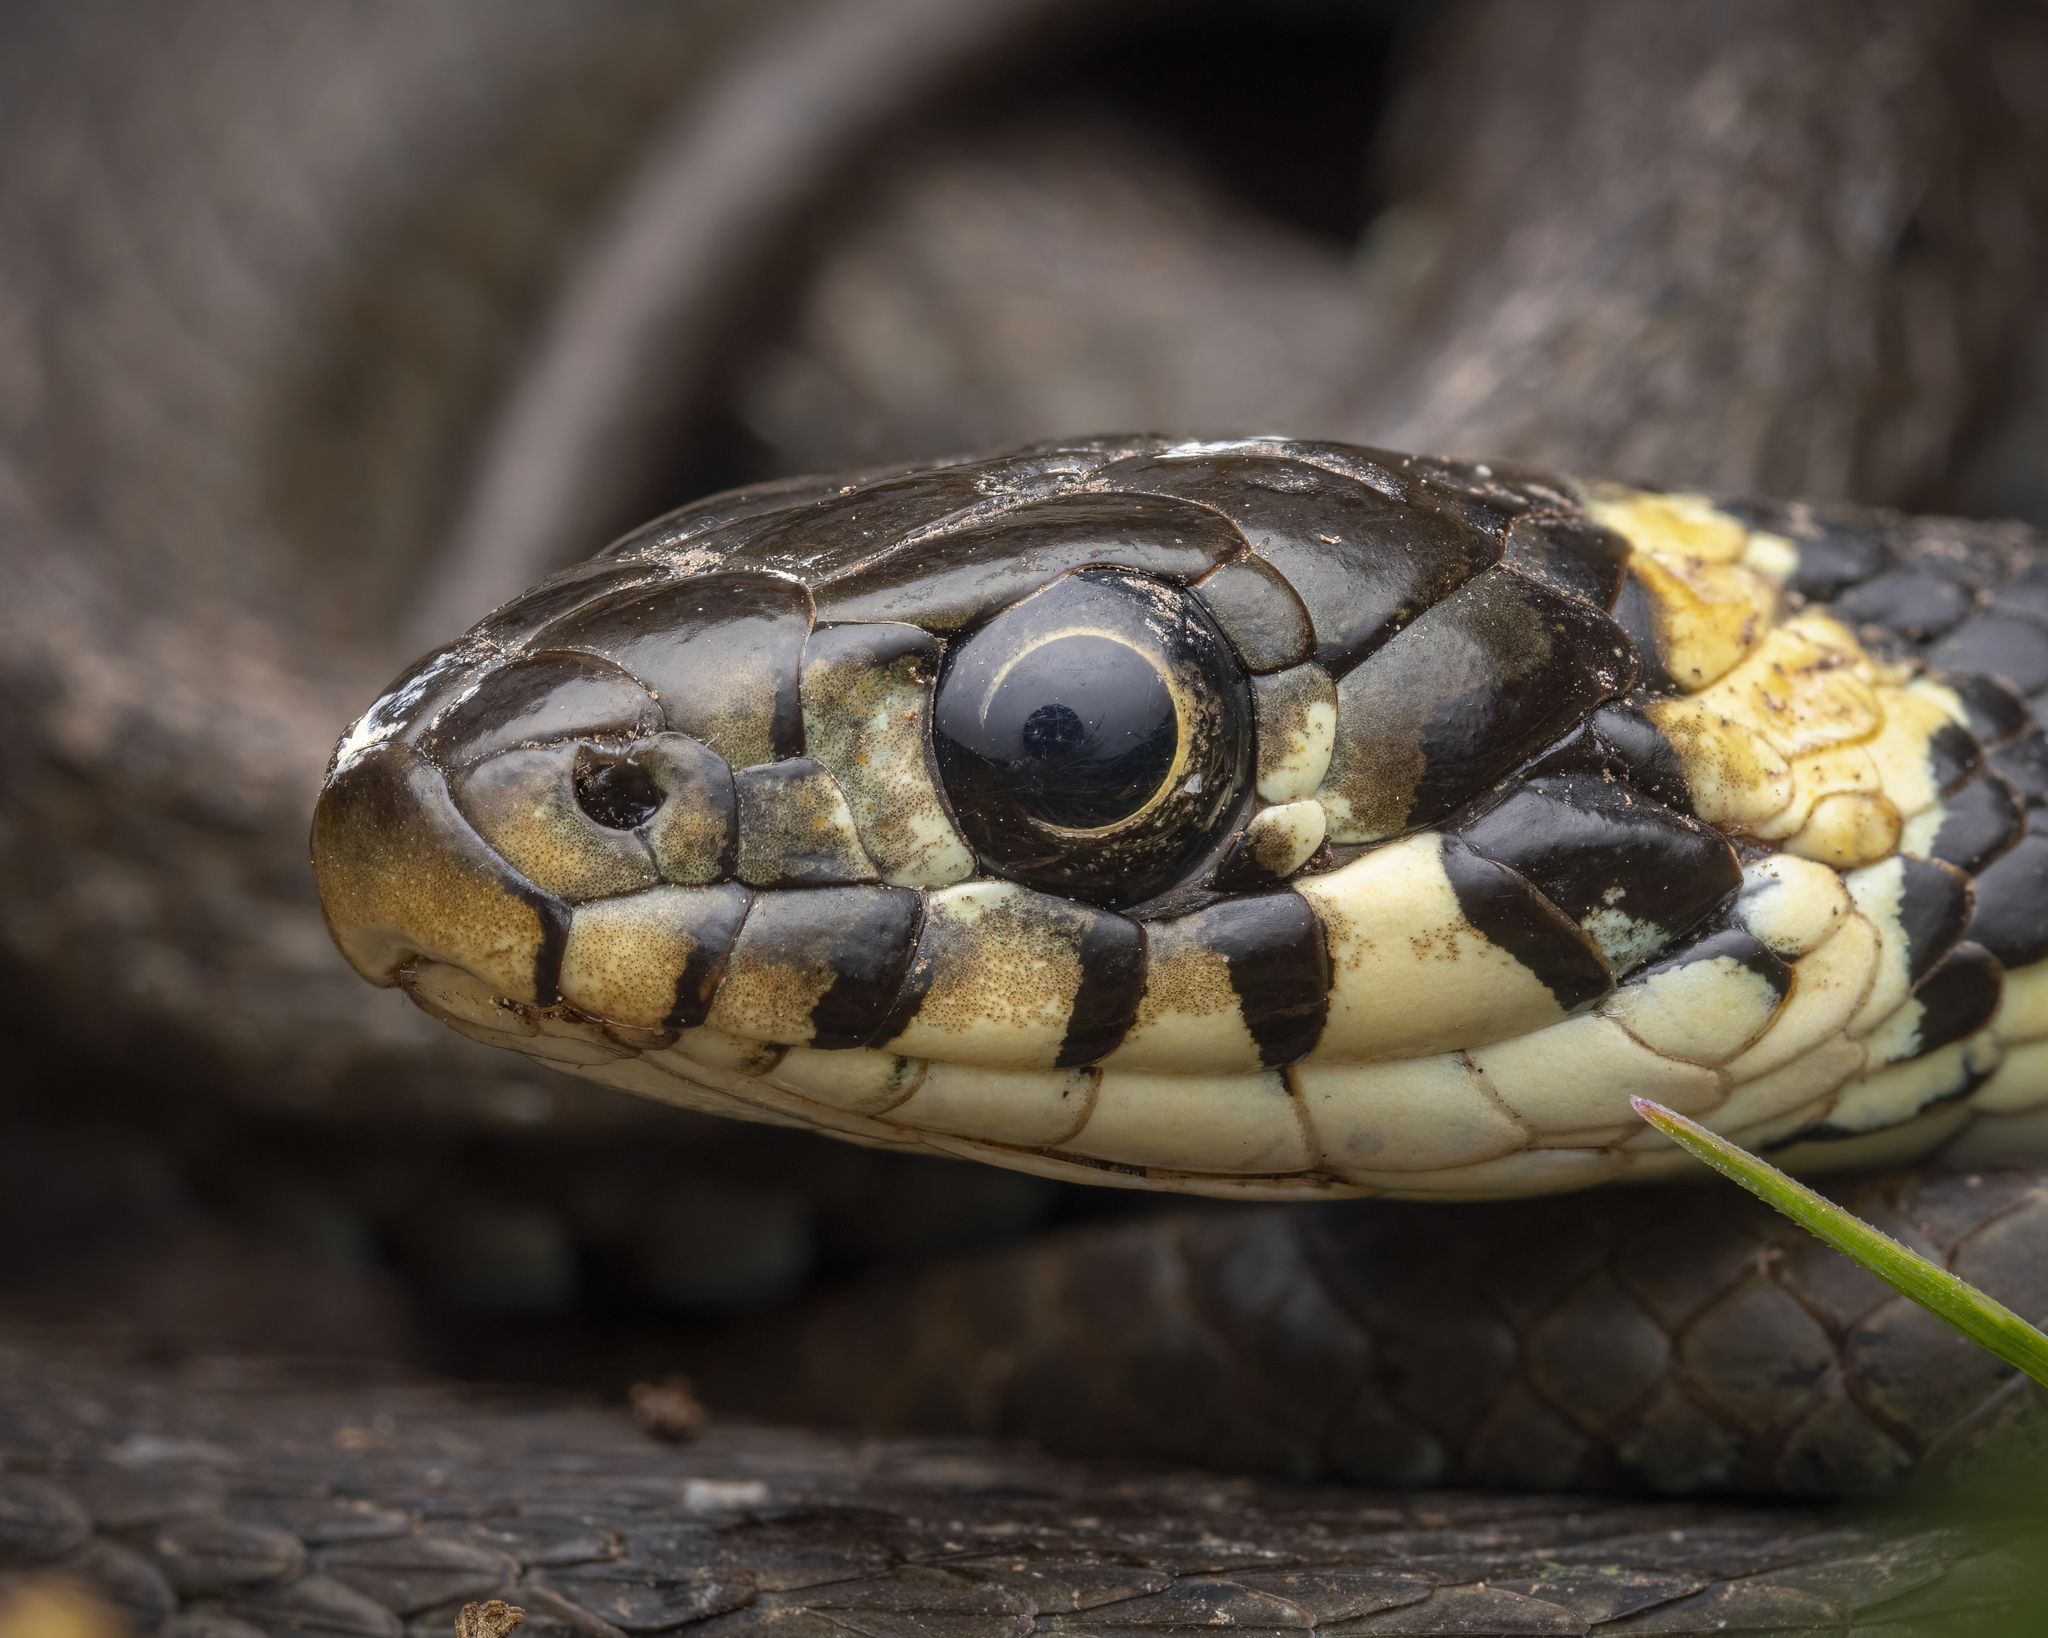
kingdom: Animalia
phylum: Chordata
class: Squamata
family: Colubridae
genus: Natrix
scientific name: Natrix natrix
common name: Grass snake
